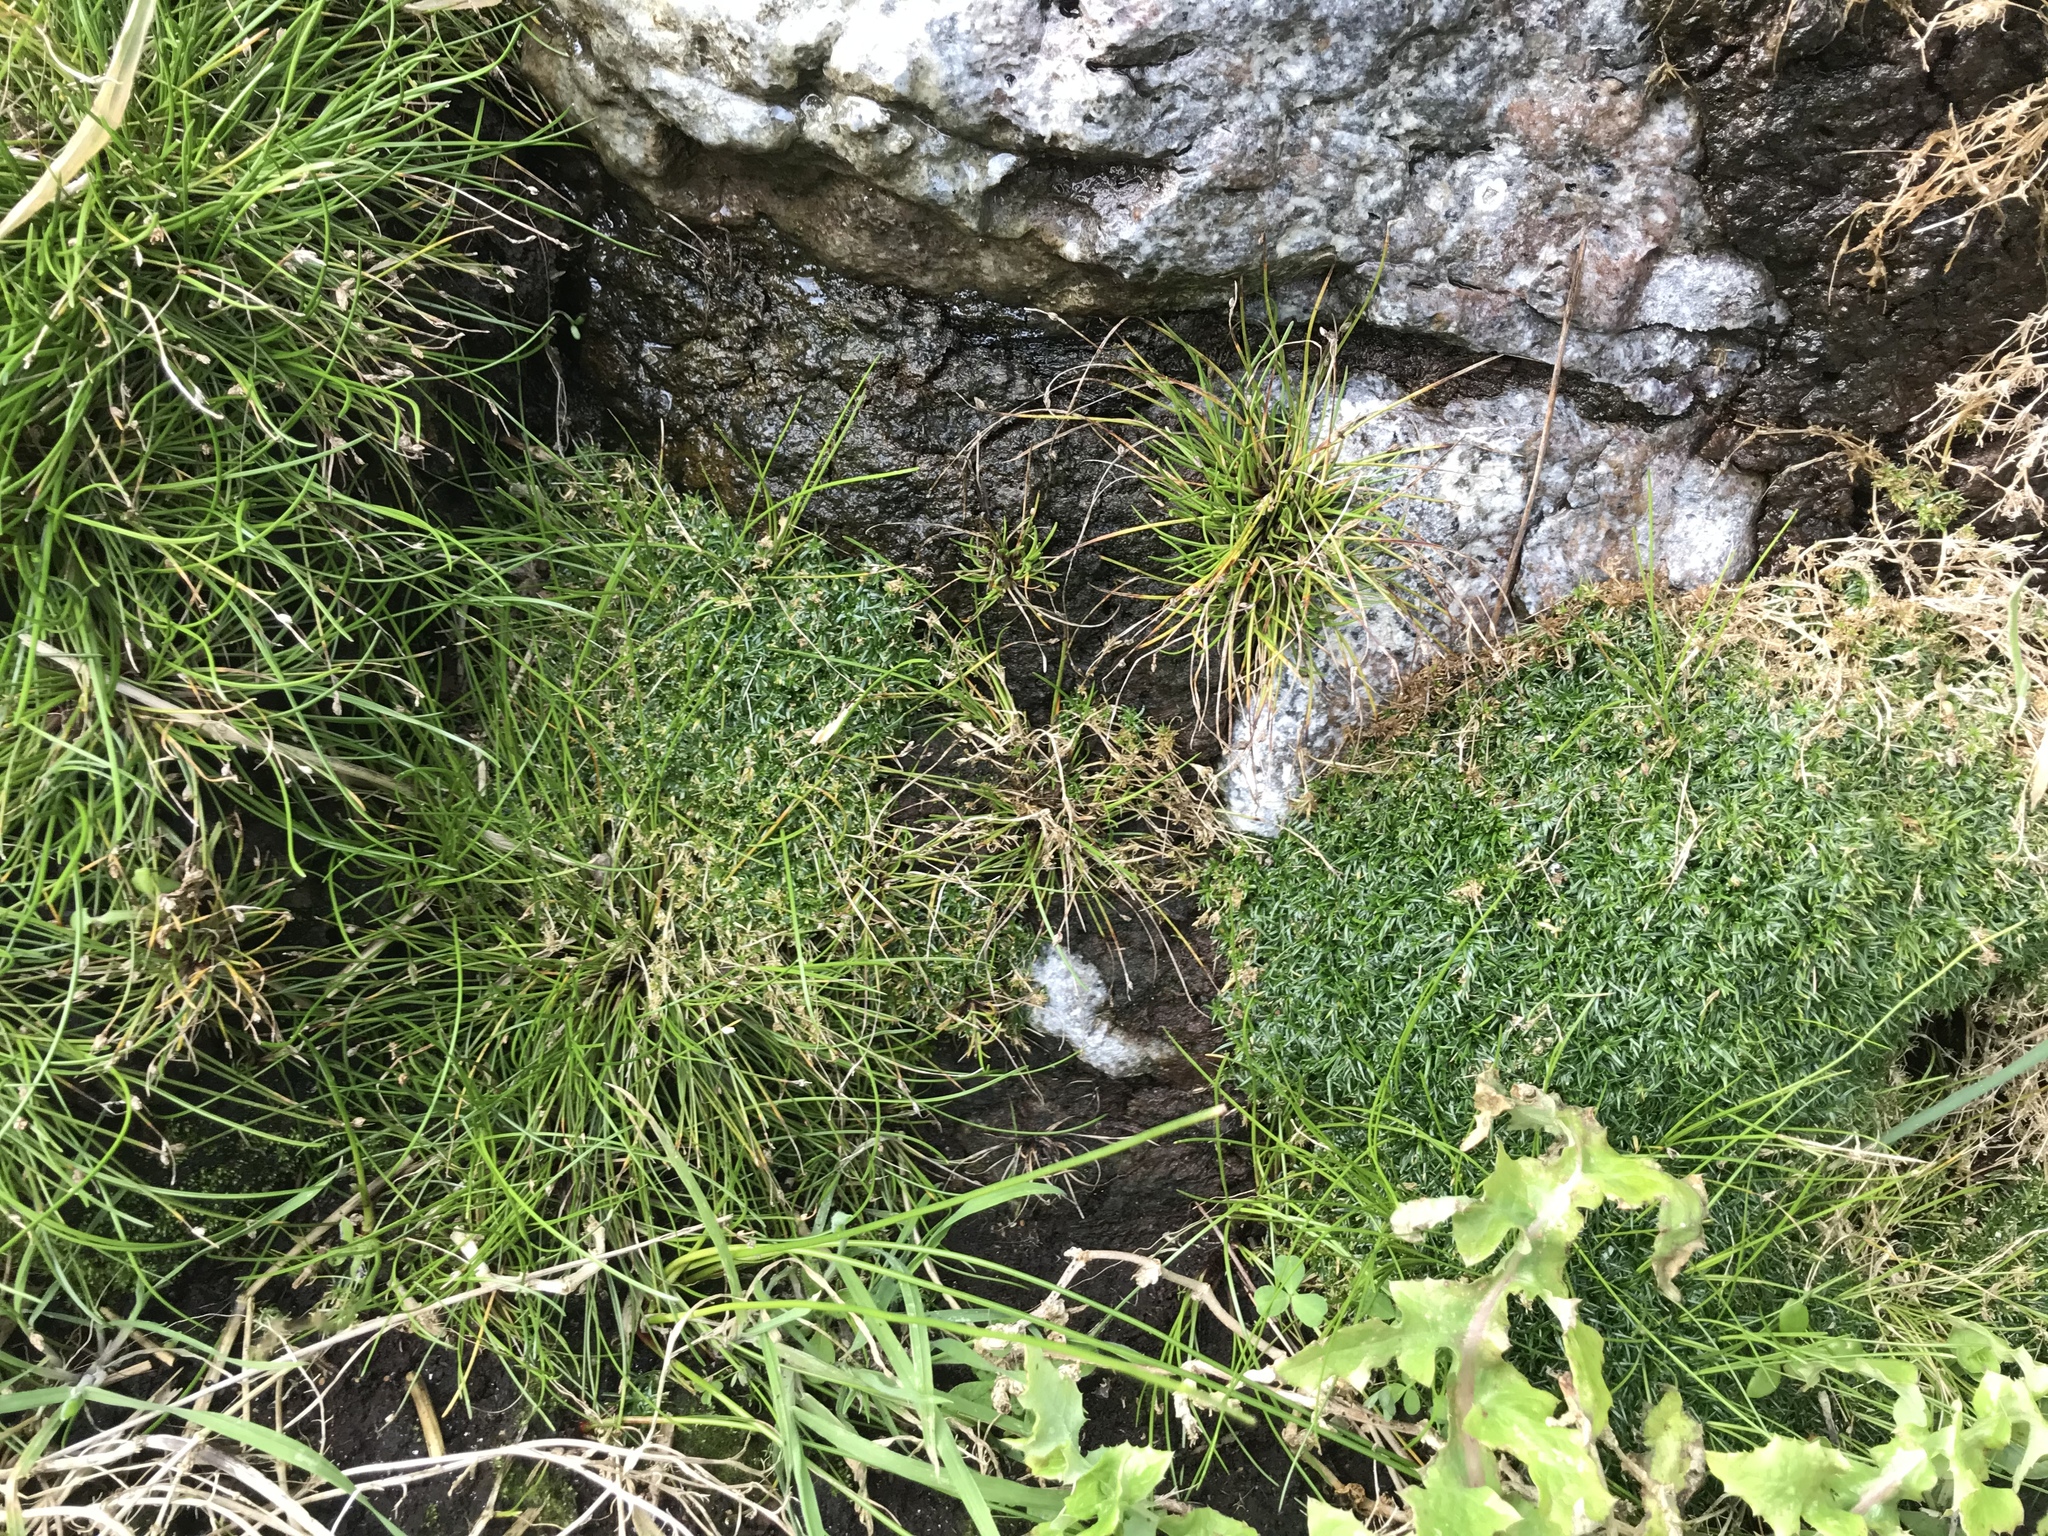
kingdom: Plantae
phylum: Tracheophyta
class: Magnoliopsida
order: Caryophyllales
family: Caryophyllaceae
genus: Colobanthus
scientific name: Colobanthus muscoides
